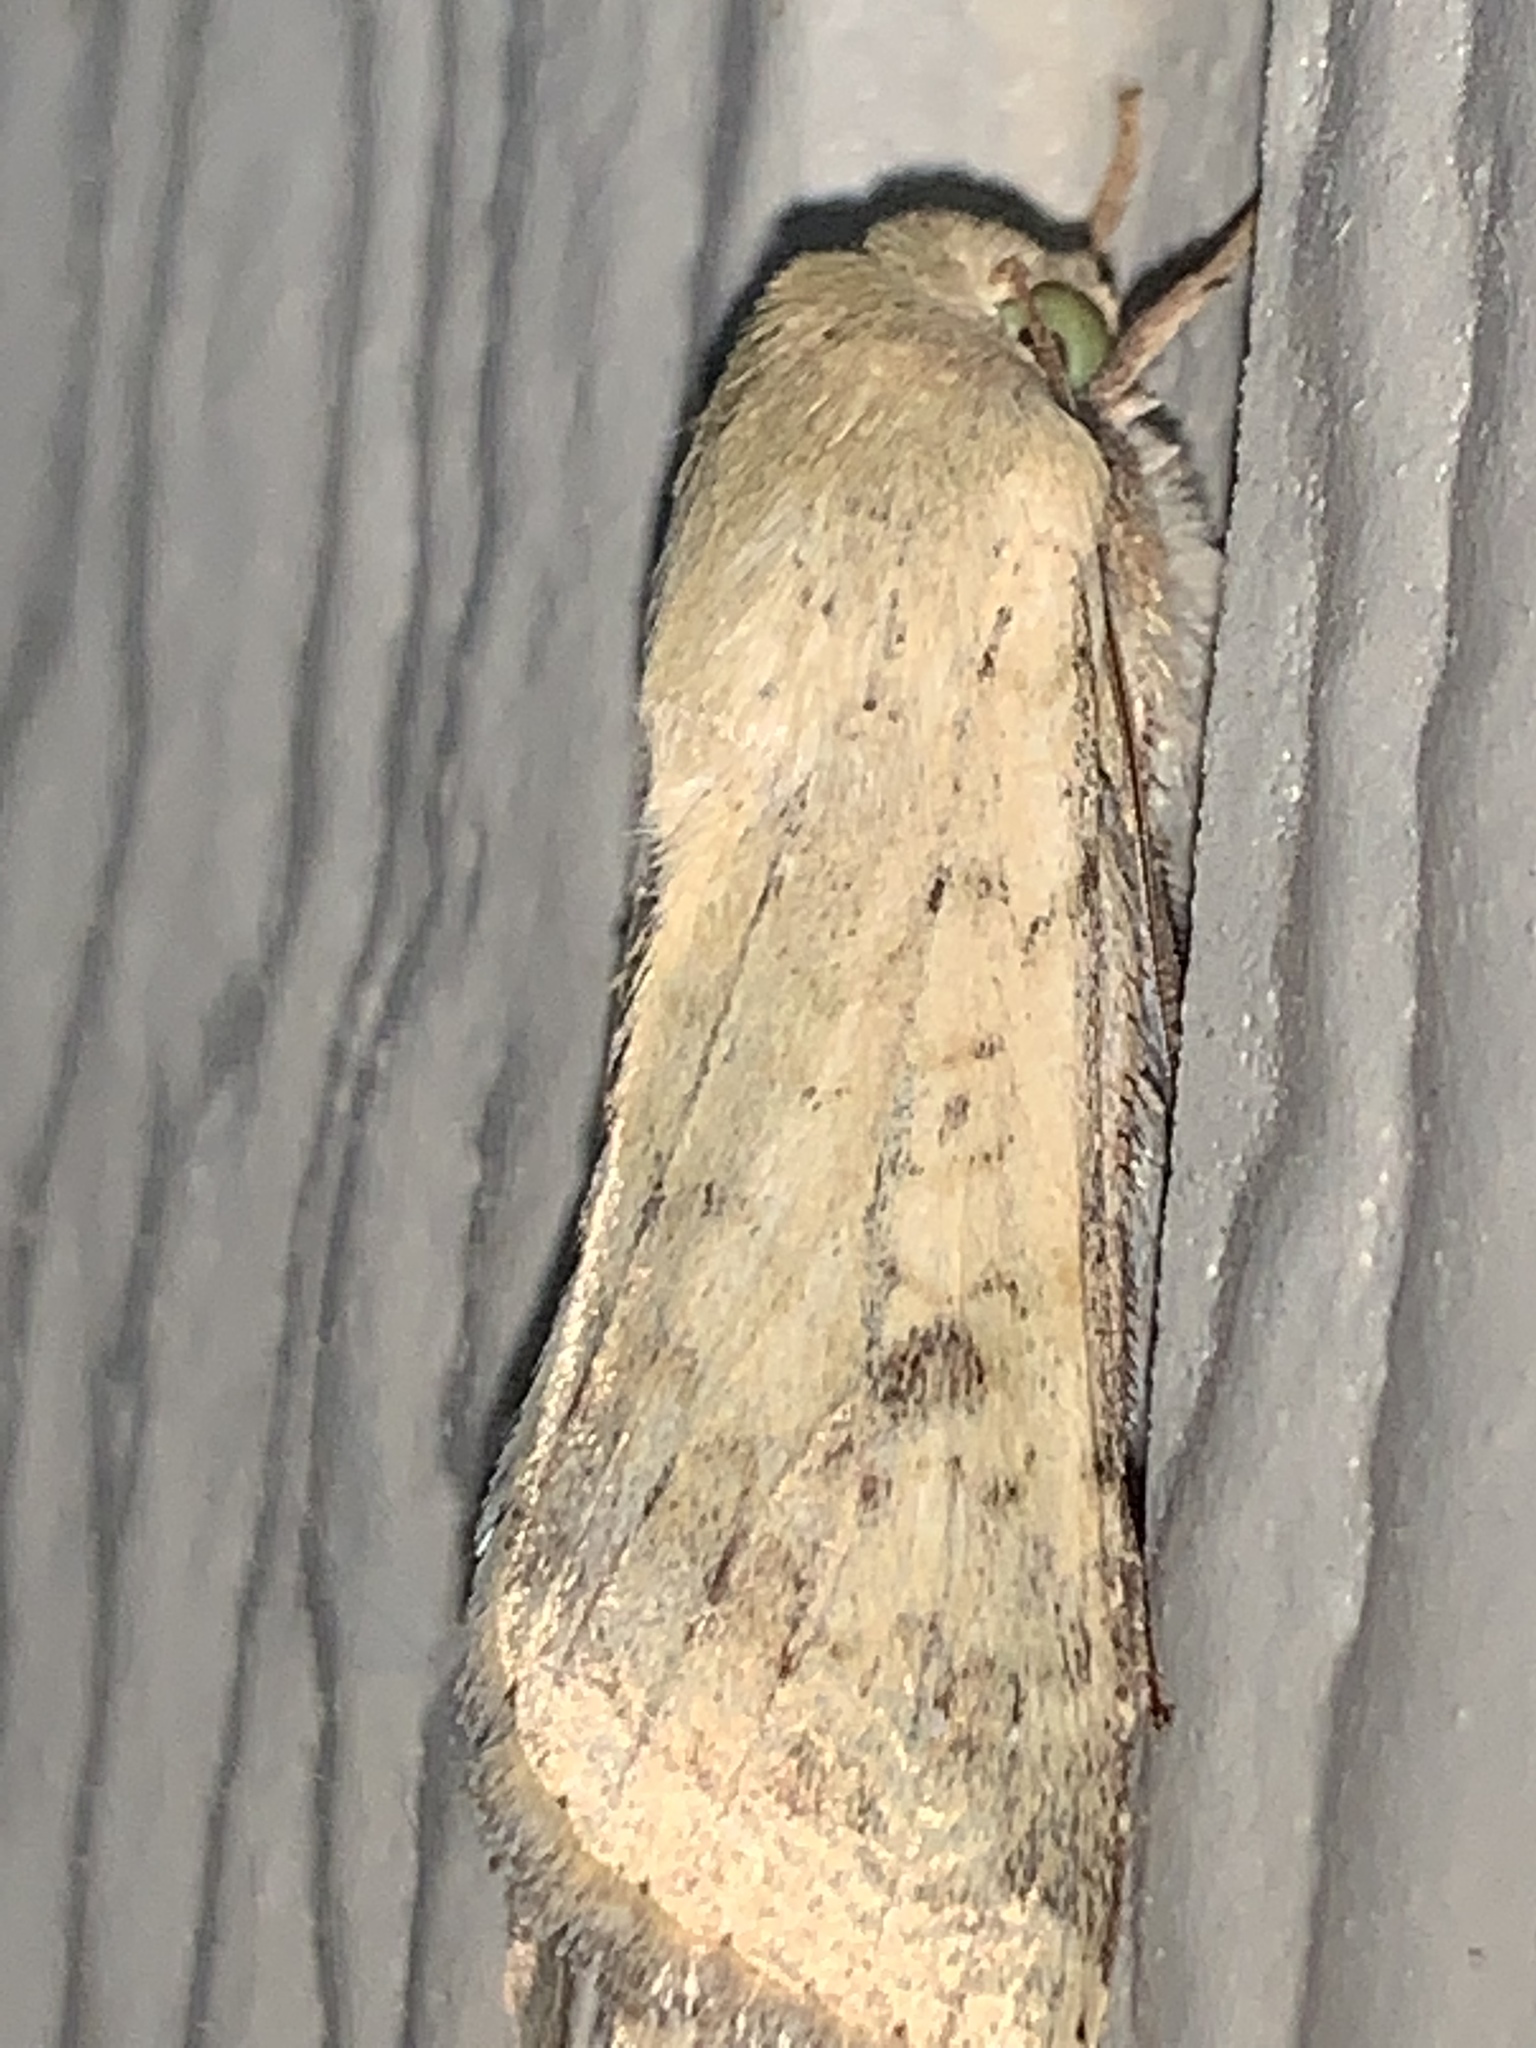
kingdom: Animalia
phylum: Arthropoda
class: Insecta
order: Lepidoptera
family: Noctuidae
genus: Helicoverpa
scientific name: Helicoverpa zea
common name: Bollworm
